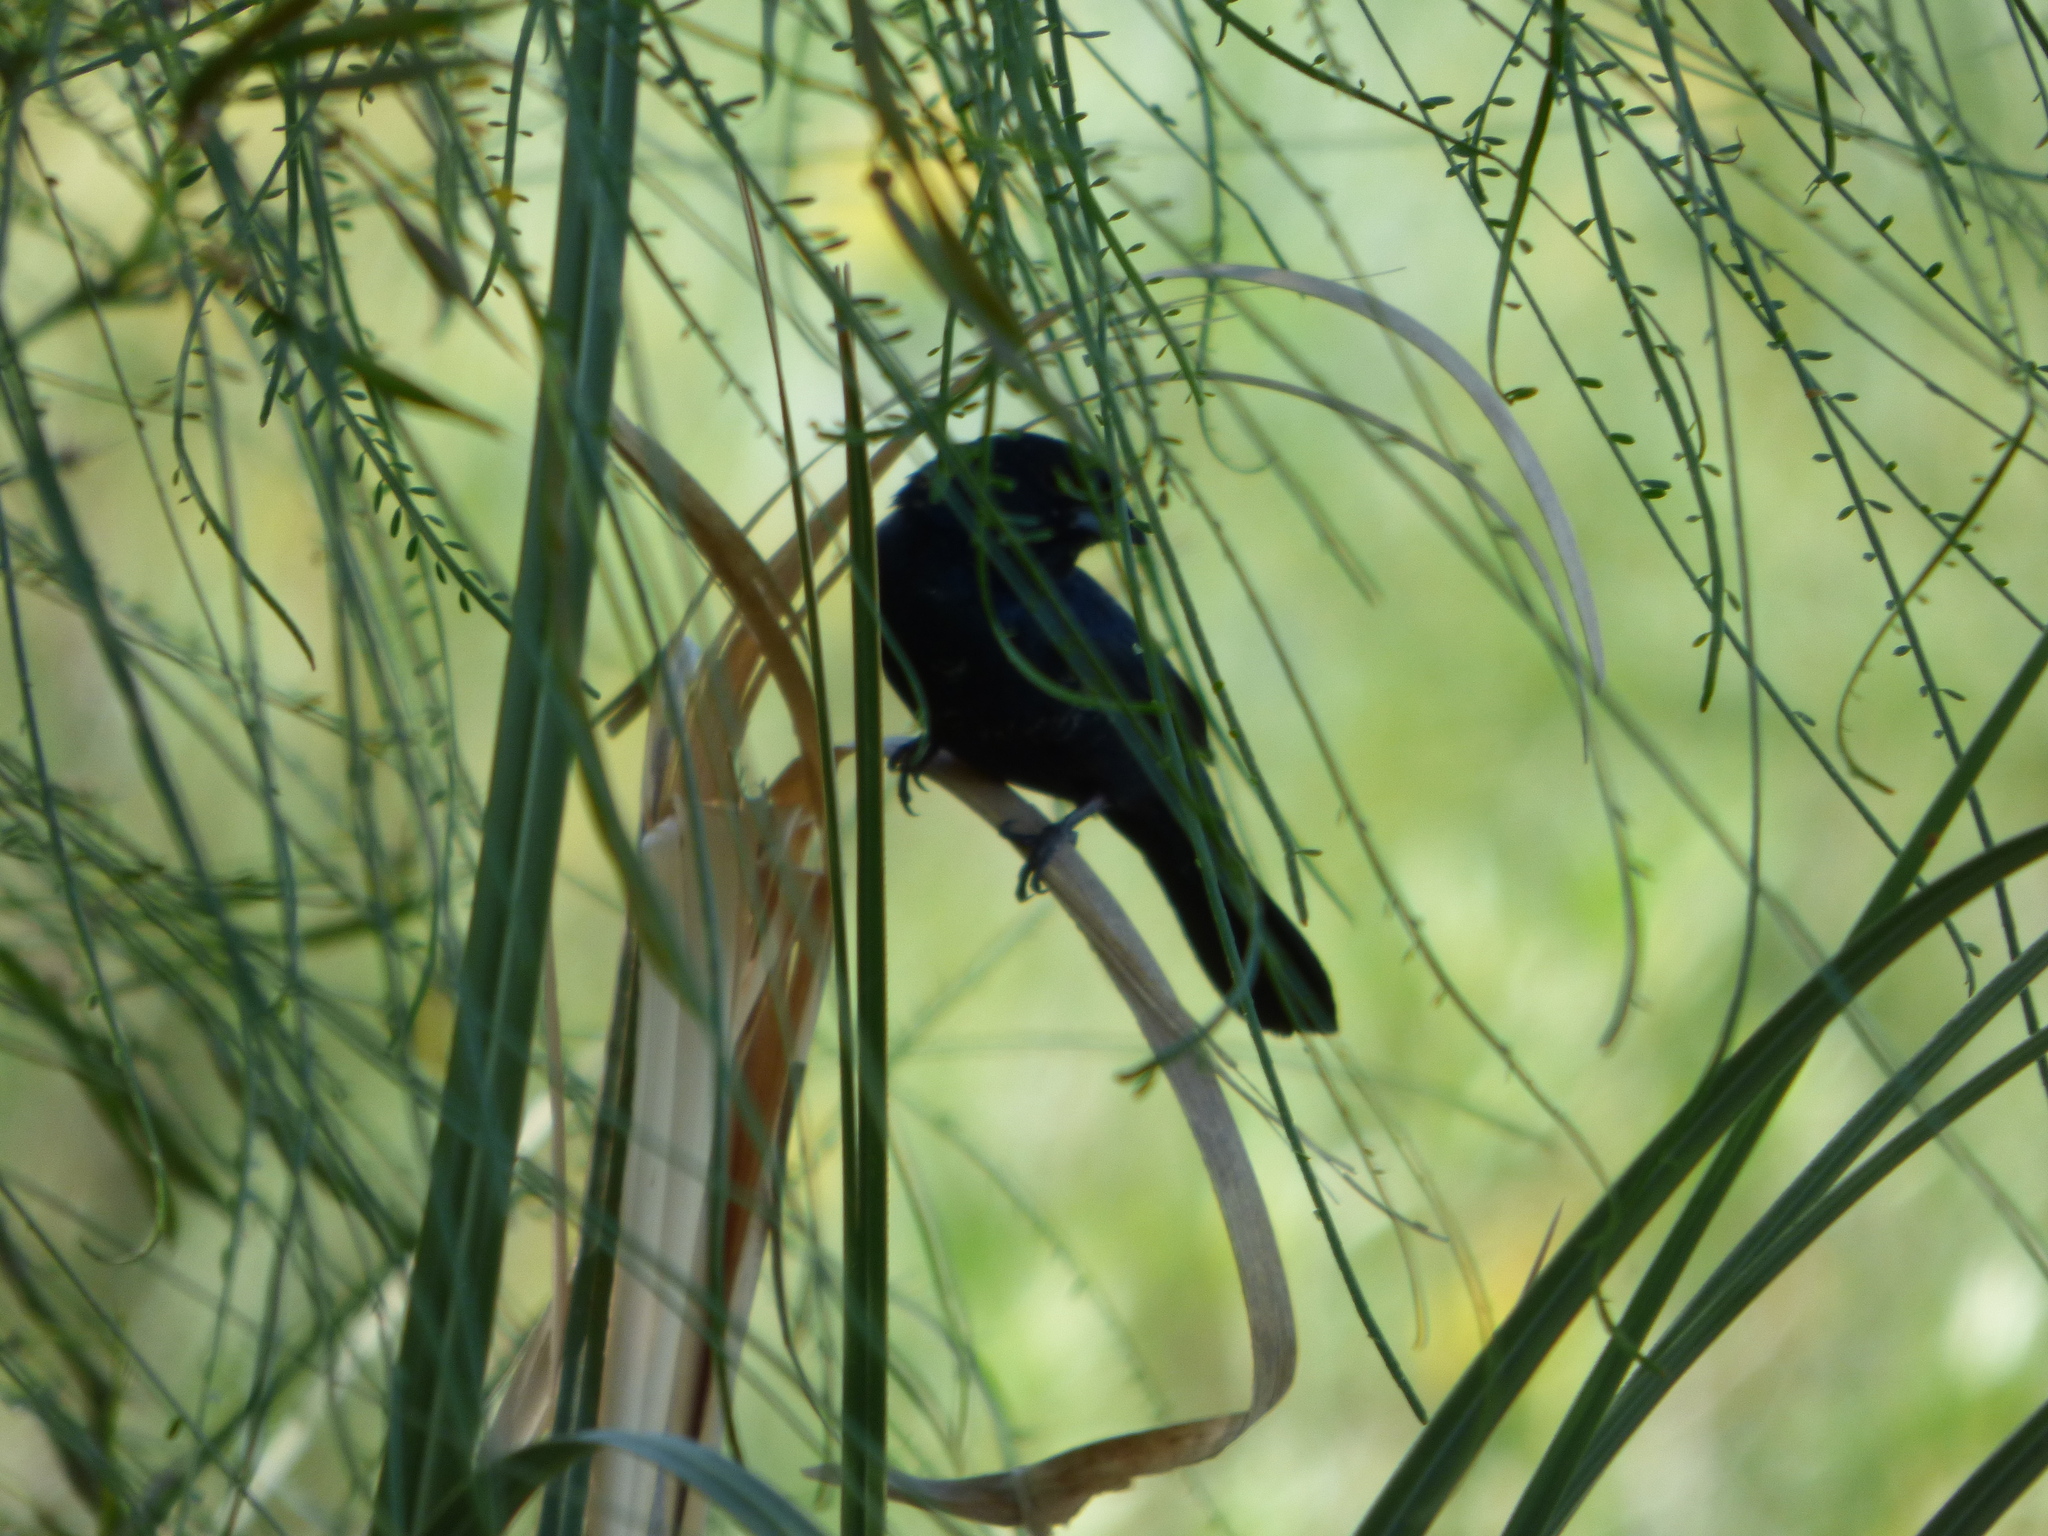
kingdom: Animalia
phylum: Chordata
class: Aves
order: Passeriformes
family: Thraupidae
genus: Volatinia
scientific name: Volatinia jacarina
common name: Blue-black grassquit
